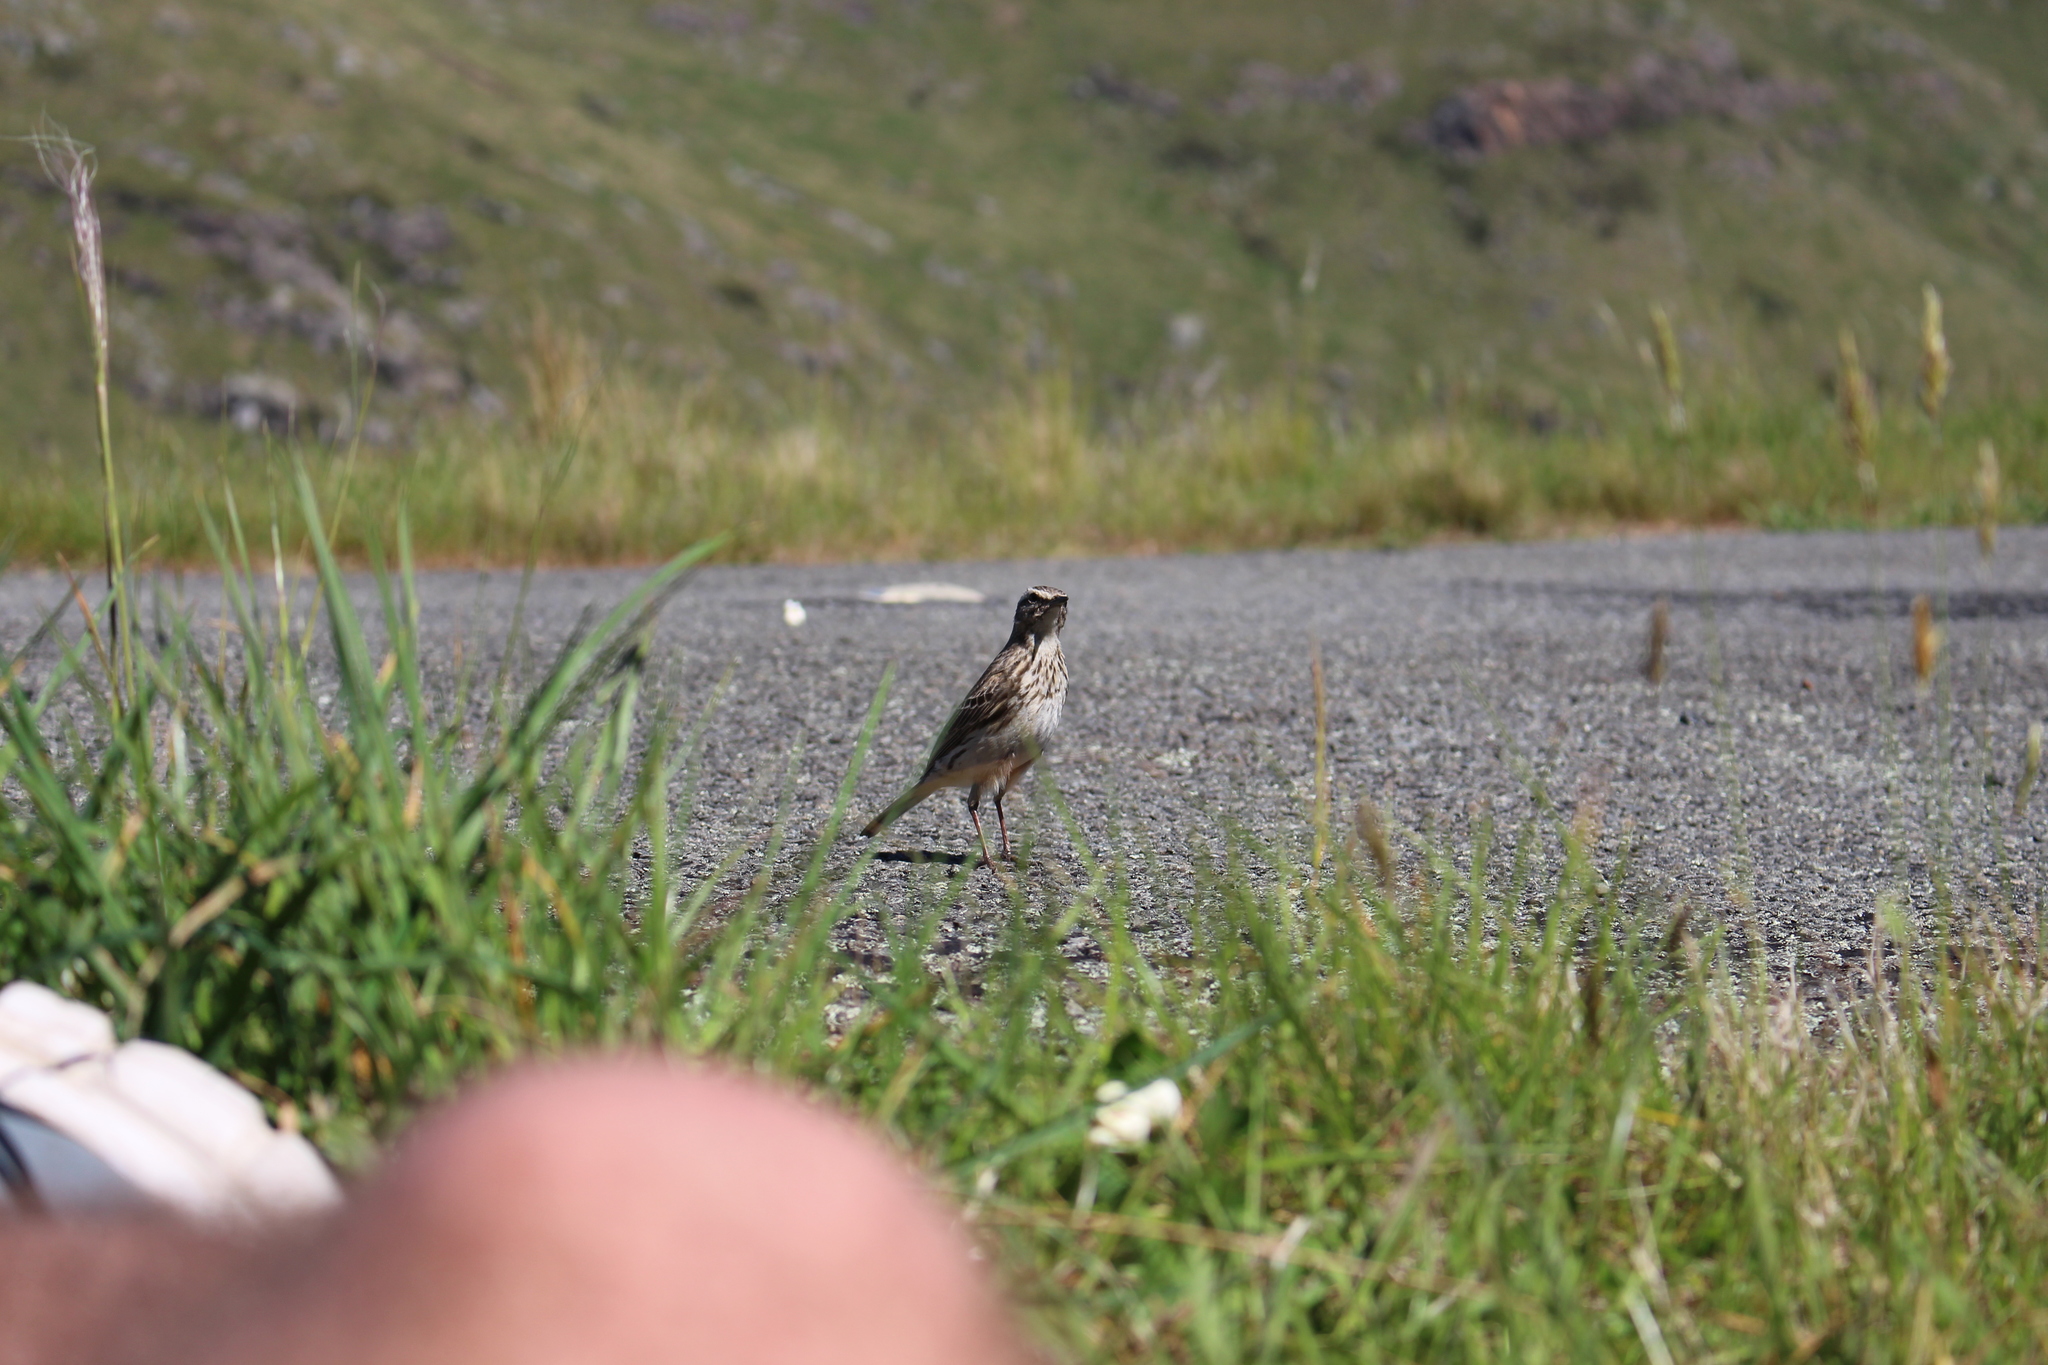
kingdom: Animalia
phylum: Chordata
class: Aves
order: Passeriformes
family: Motacillidae
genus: Anthus
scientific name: Anthus novaeseelandiae
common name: New zealand pipit
